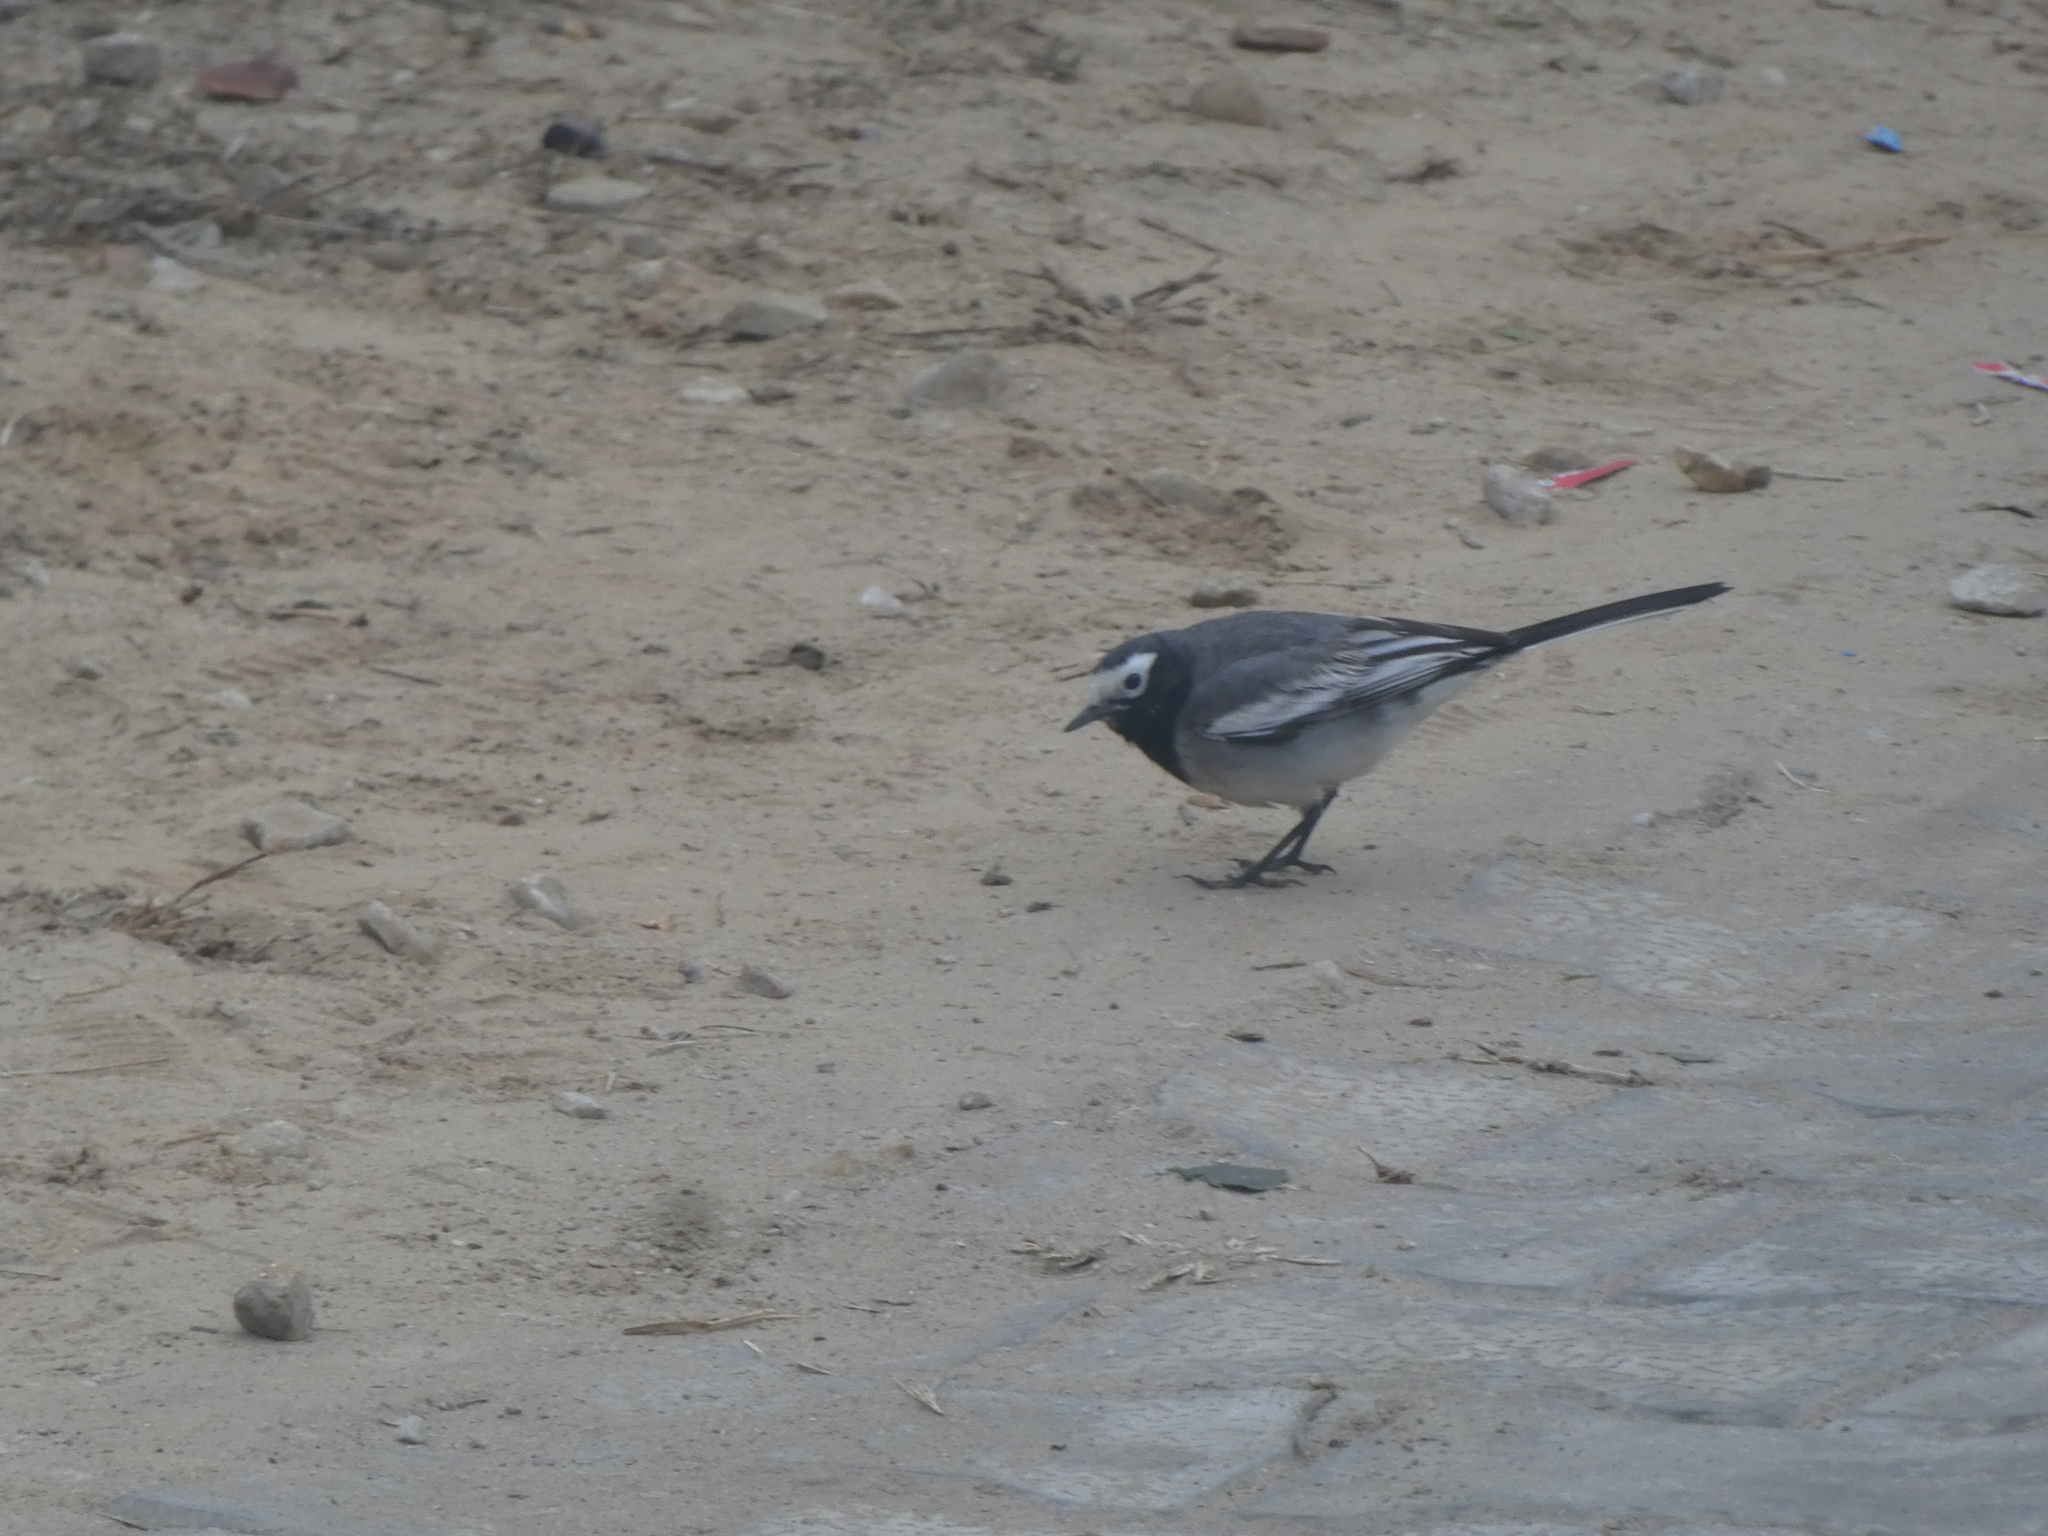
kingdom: Animalia
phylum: Chordata
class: Aves
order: Passeriformes
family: Motacillidae
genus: Motacilla
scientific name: Motacilla alba
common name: White wagtail
